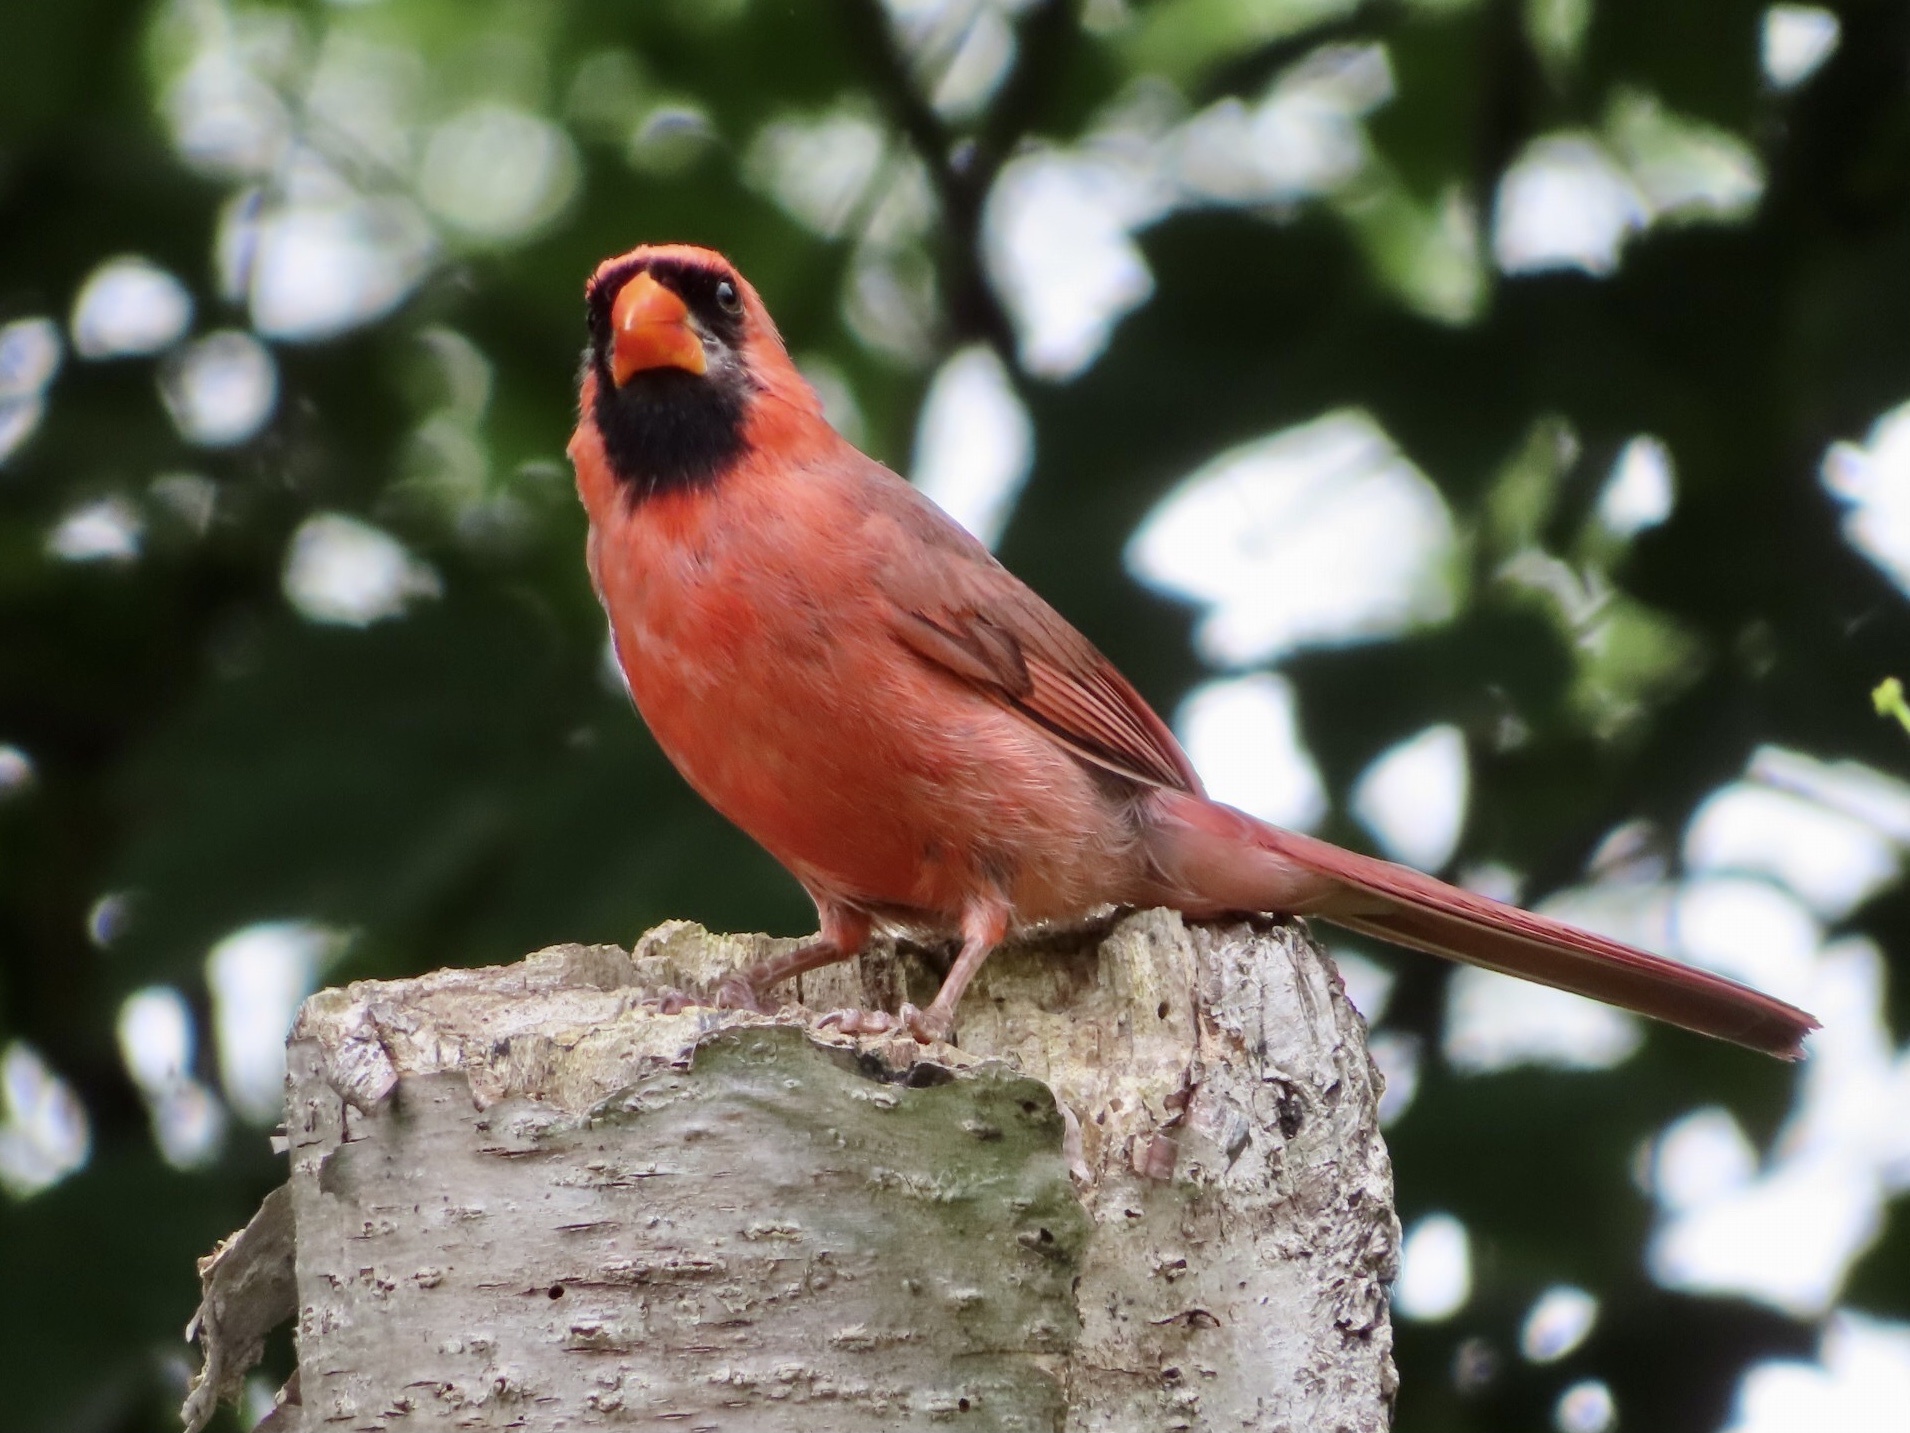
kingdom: Animalia
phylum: Chordata
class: Aves
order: Passeriformes
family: Cardinalidae
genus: Cardinalis
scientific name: Cardinalis cardinalis
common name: Northern cardinal
